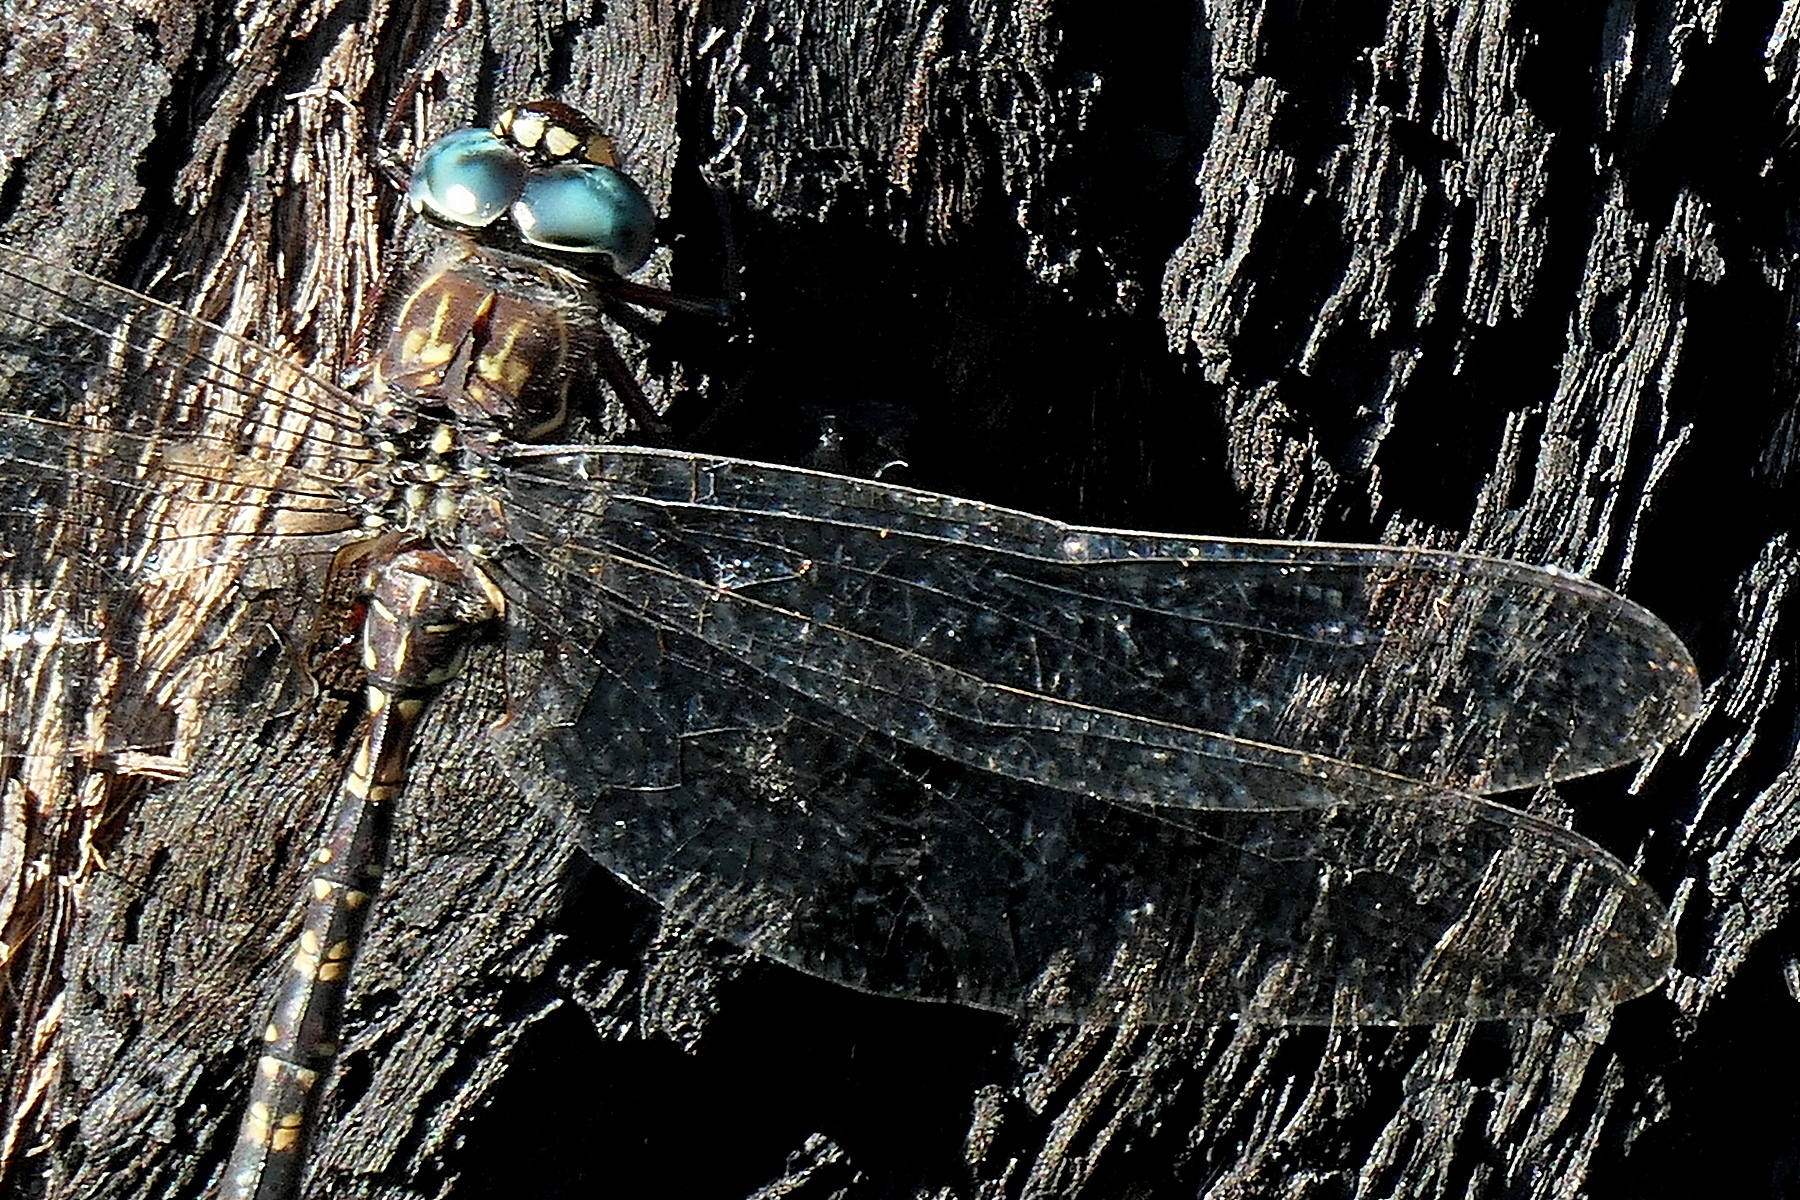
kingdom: Animalia
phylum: Arthropoda
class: Insecta
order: Odonata
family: Aeshnidae
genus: Austroaeschna
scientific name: Austroaeschna
